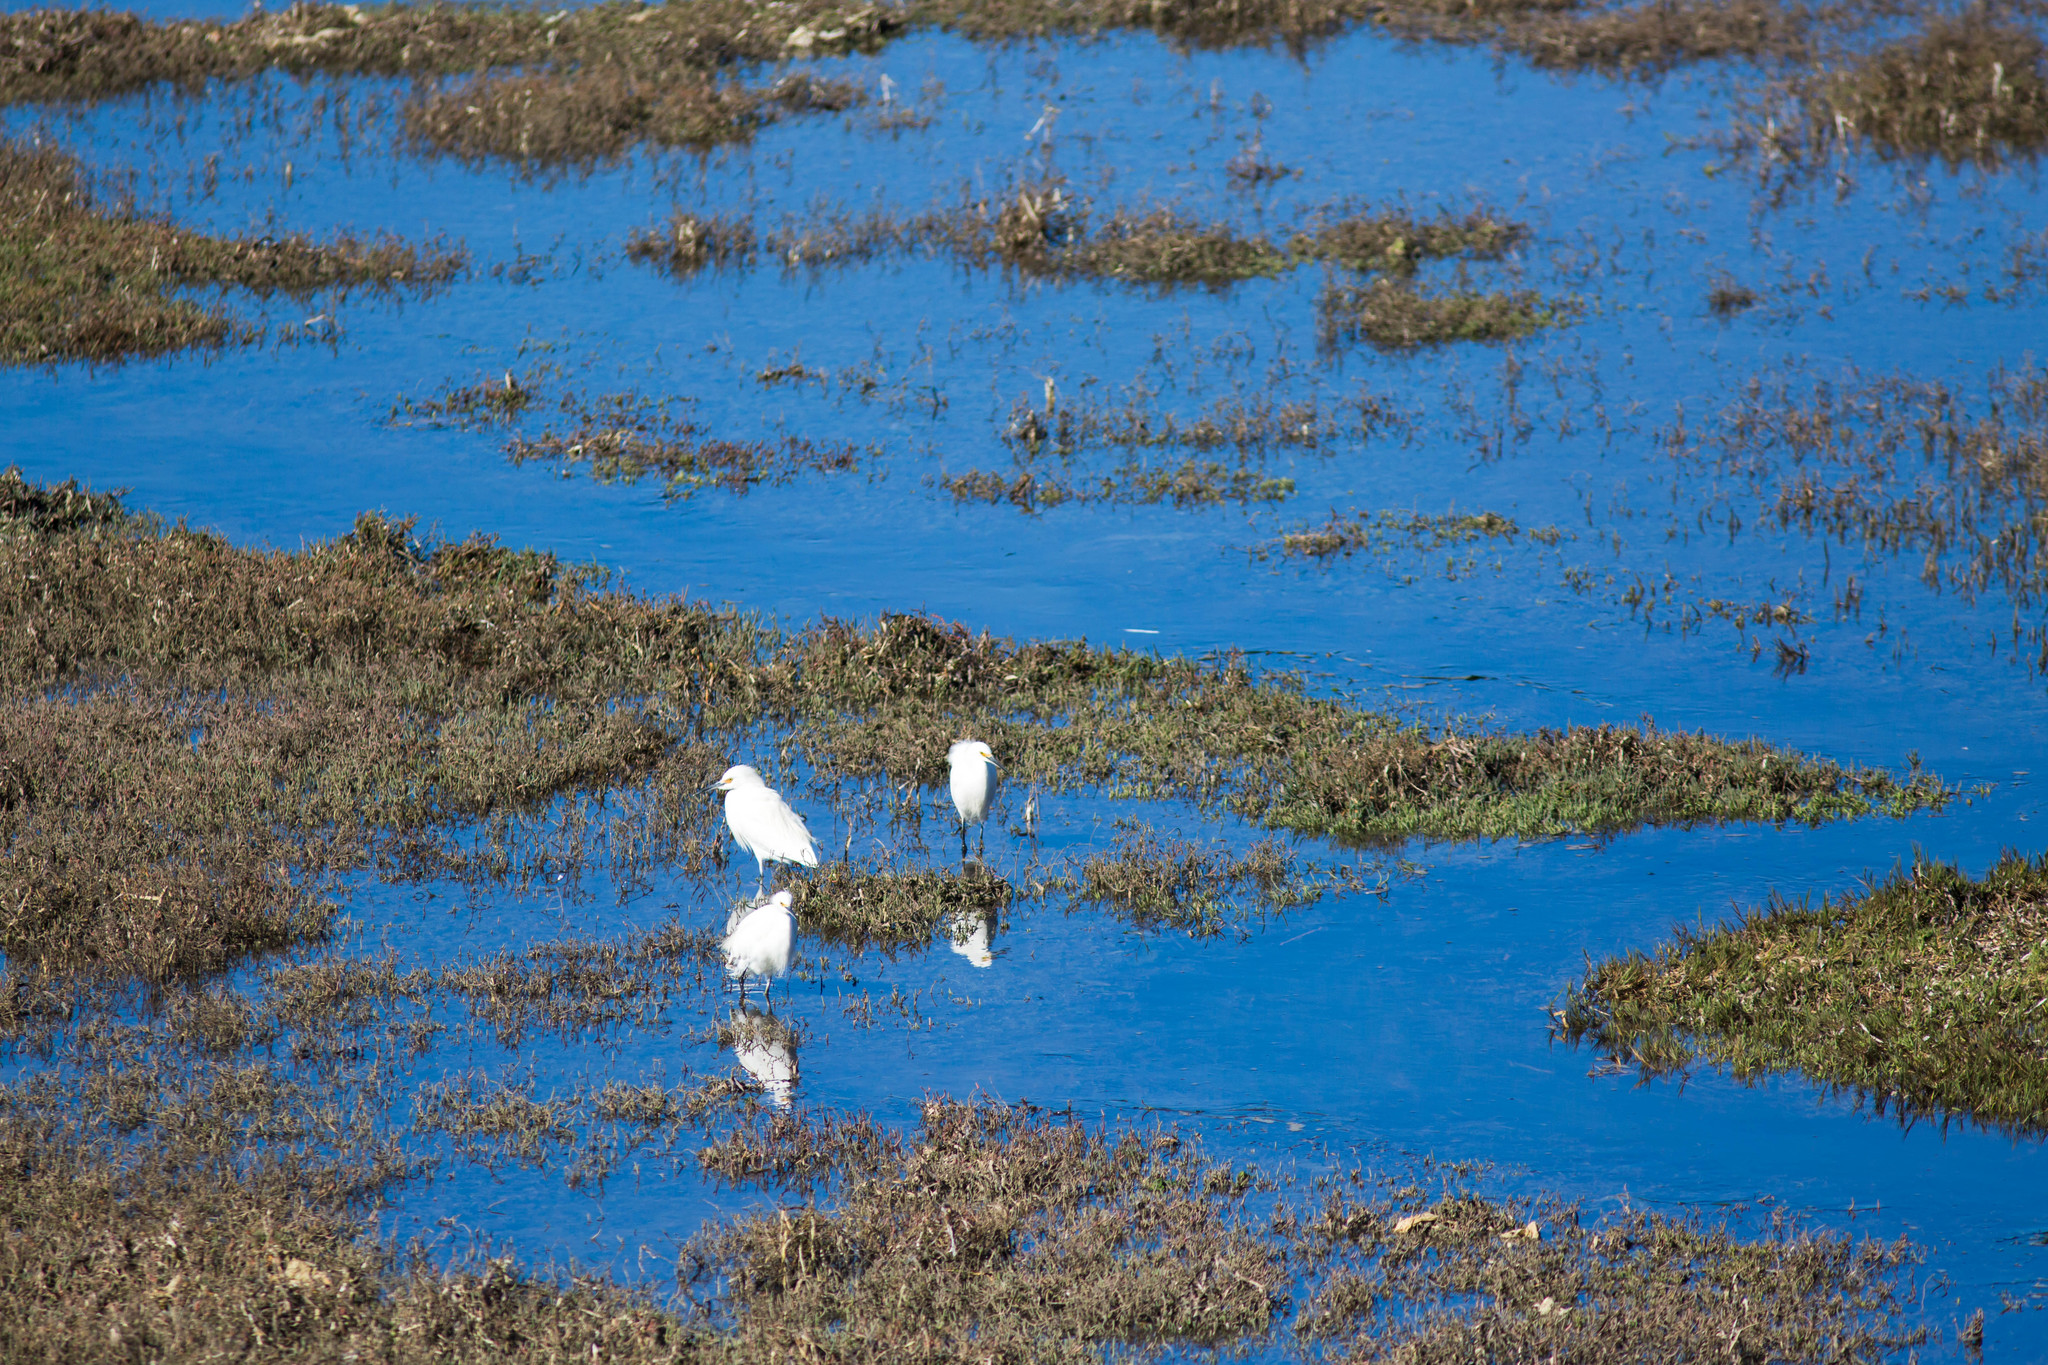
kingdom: Animalia
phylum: Chordata
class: Aves
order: Pelecaniformes
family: Ardeidae
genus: Egretta
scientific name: Egretta thula
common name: Snowy egret
